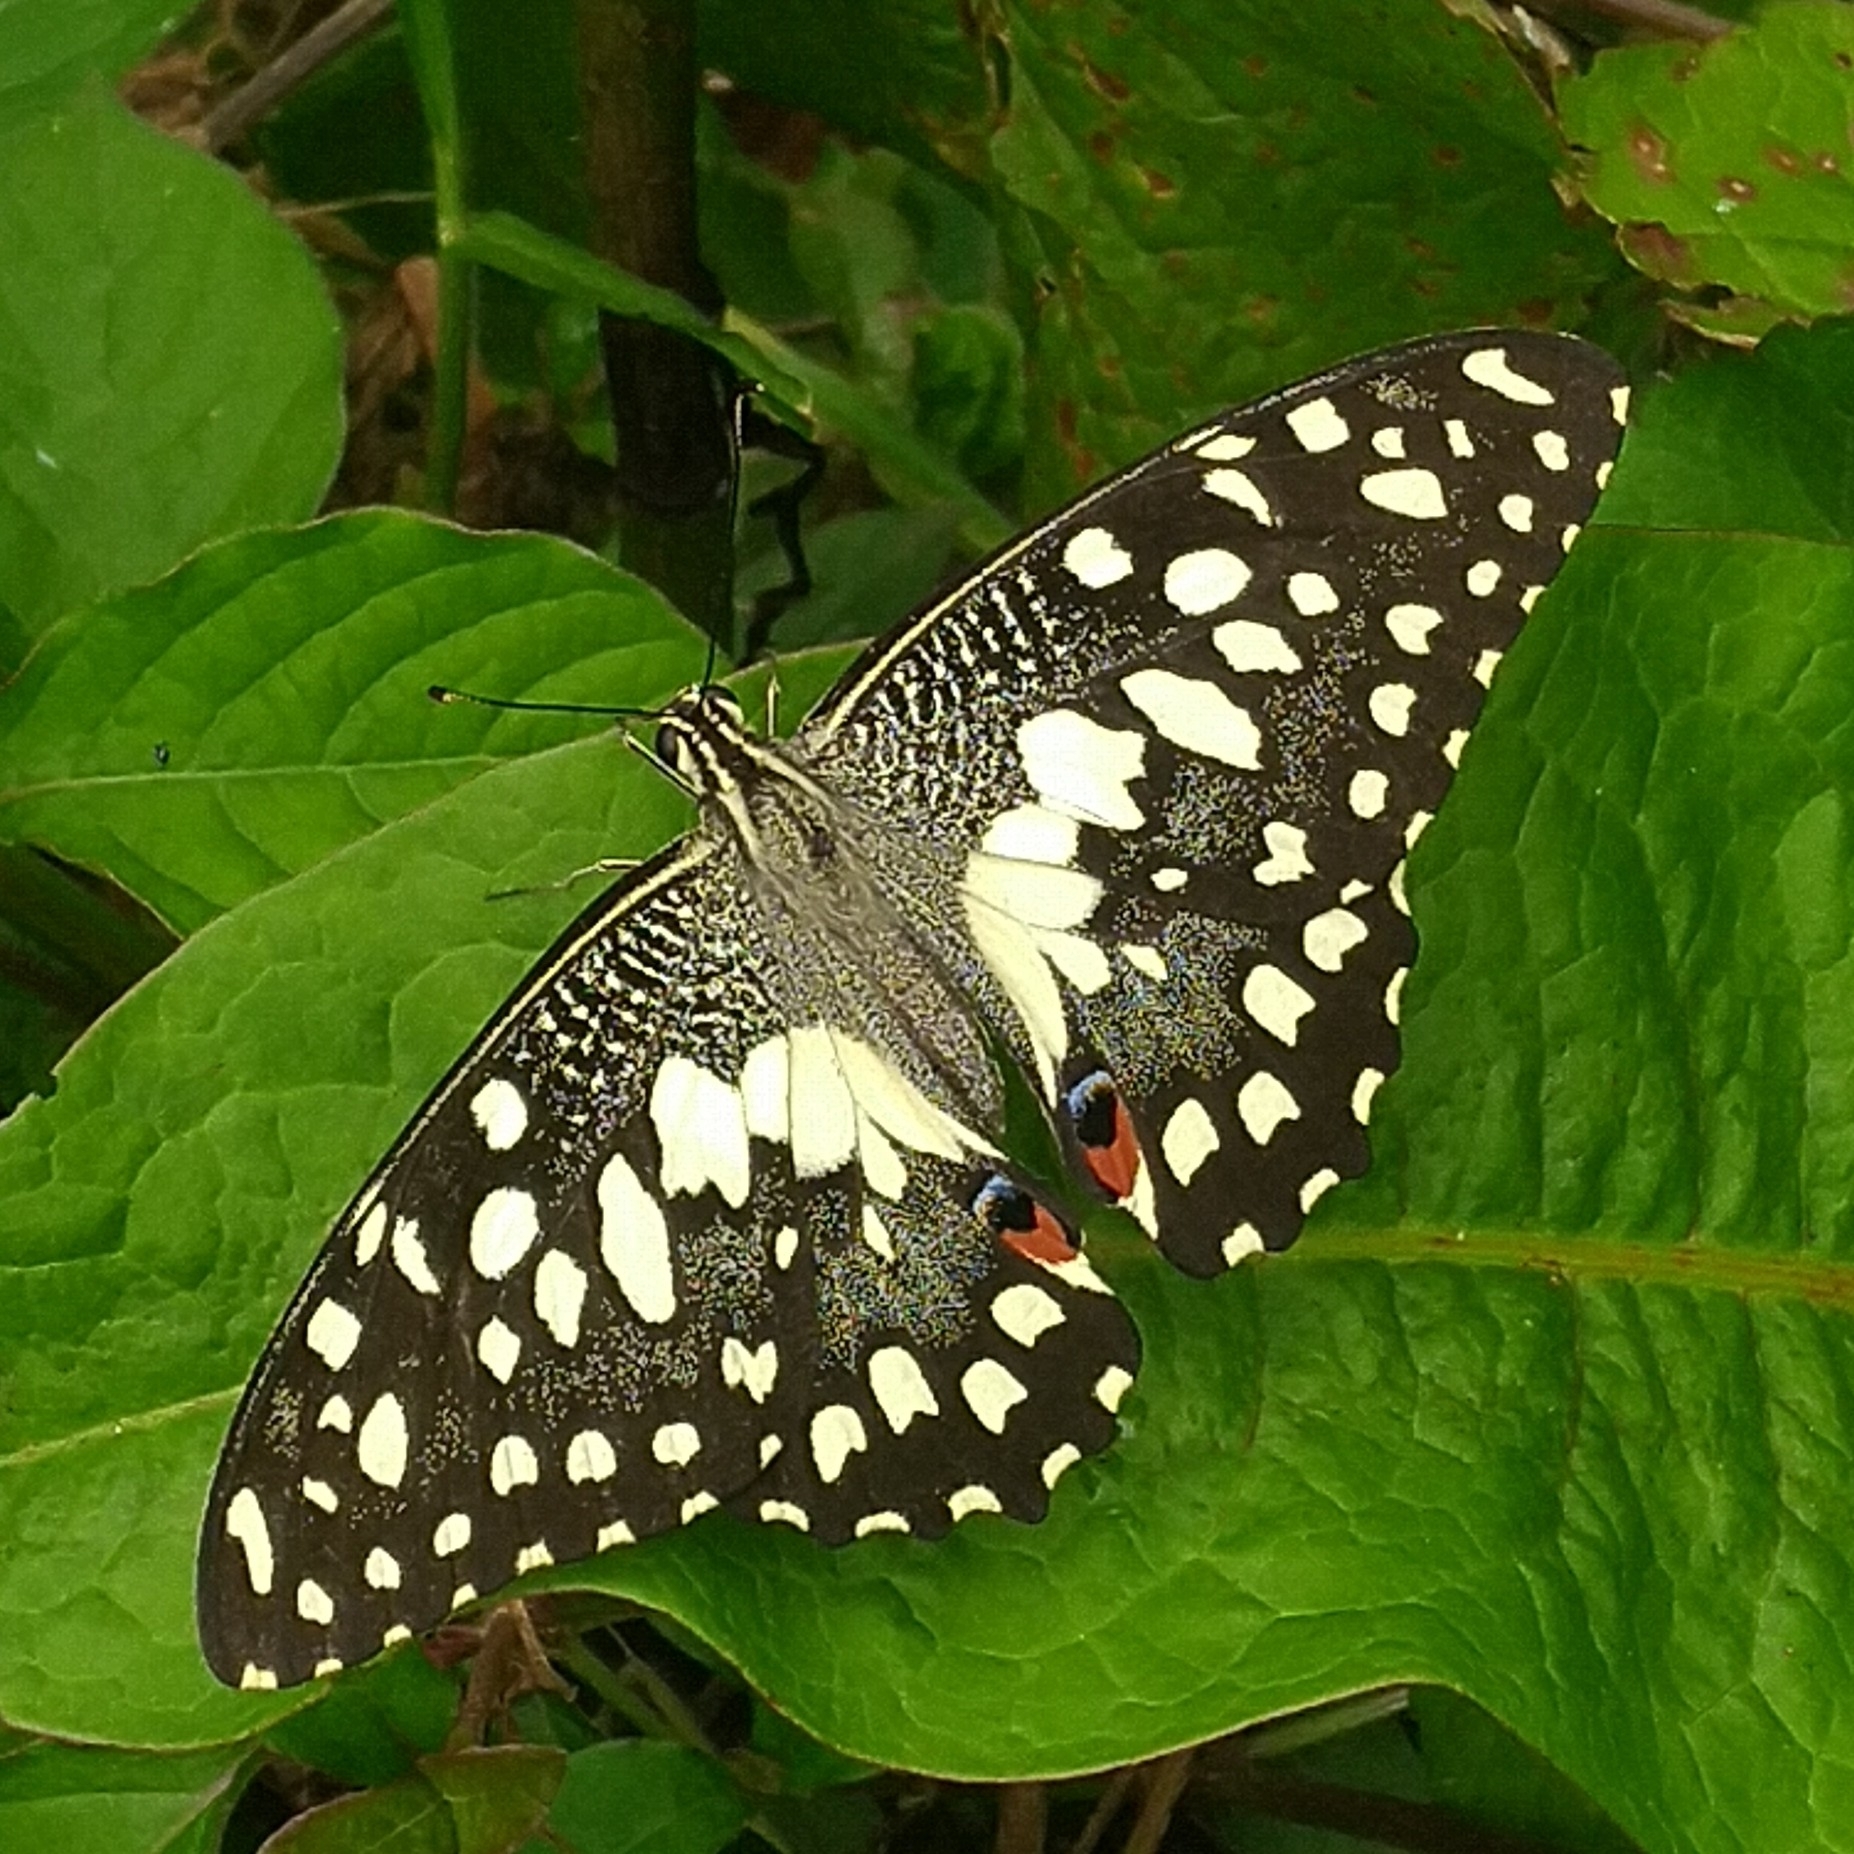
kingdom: Animalia
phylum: Arthropoda
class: Insecta
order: Lepidoptera
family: Papilionidae
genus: Papilio
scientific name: Papilio demoleus
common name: Lime butterfly
